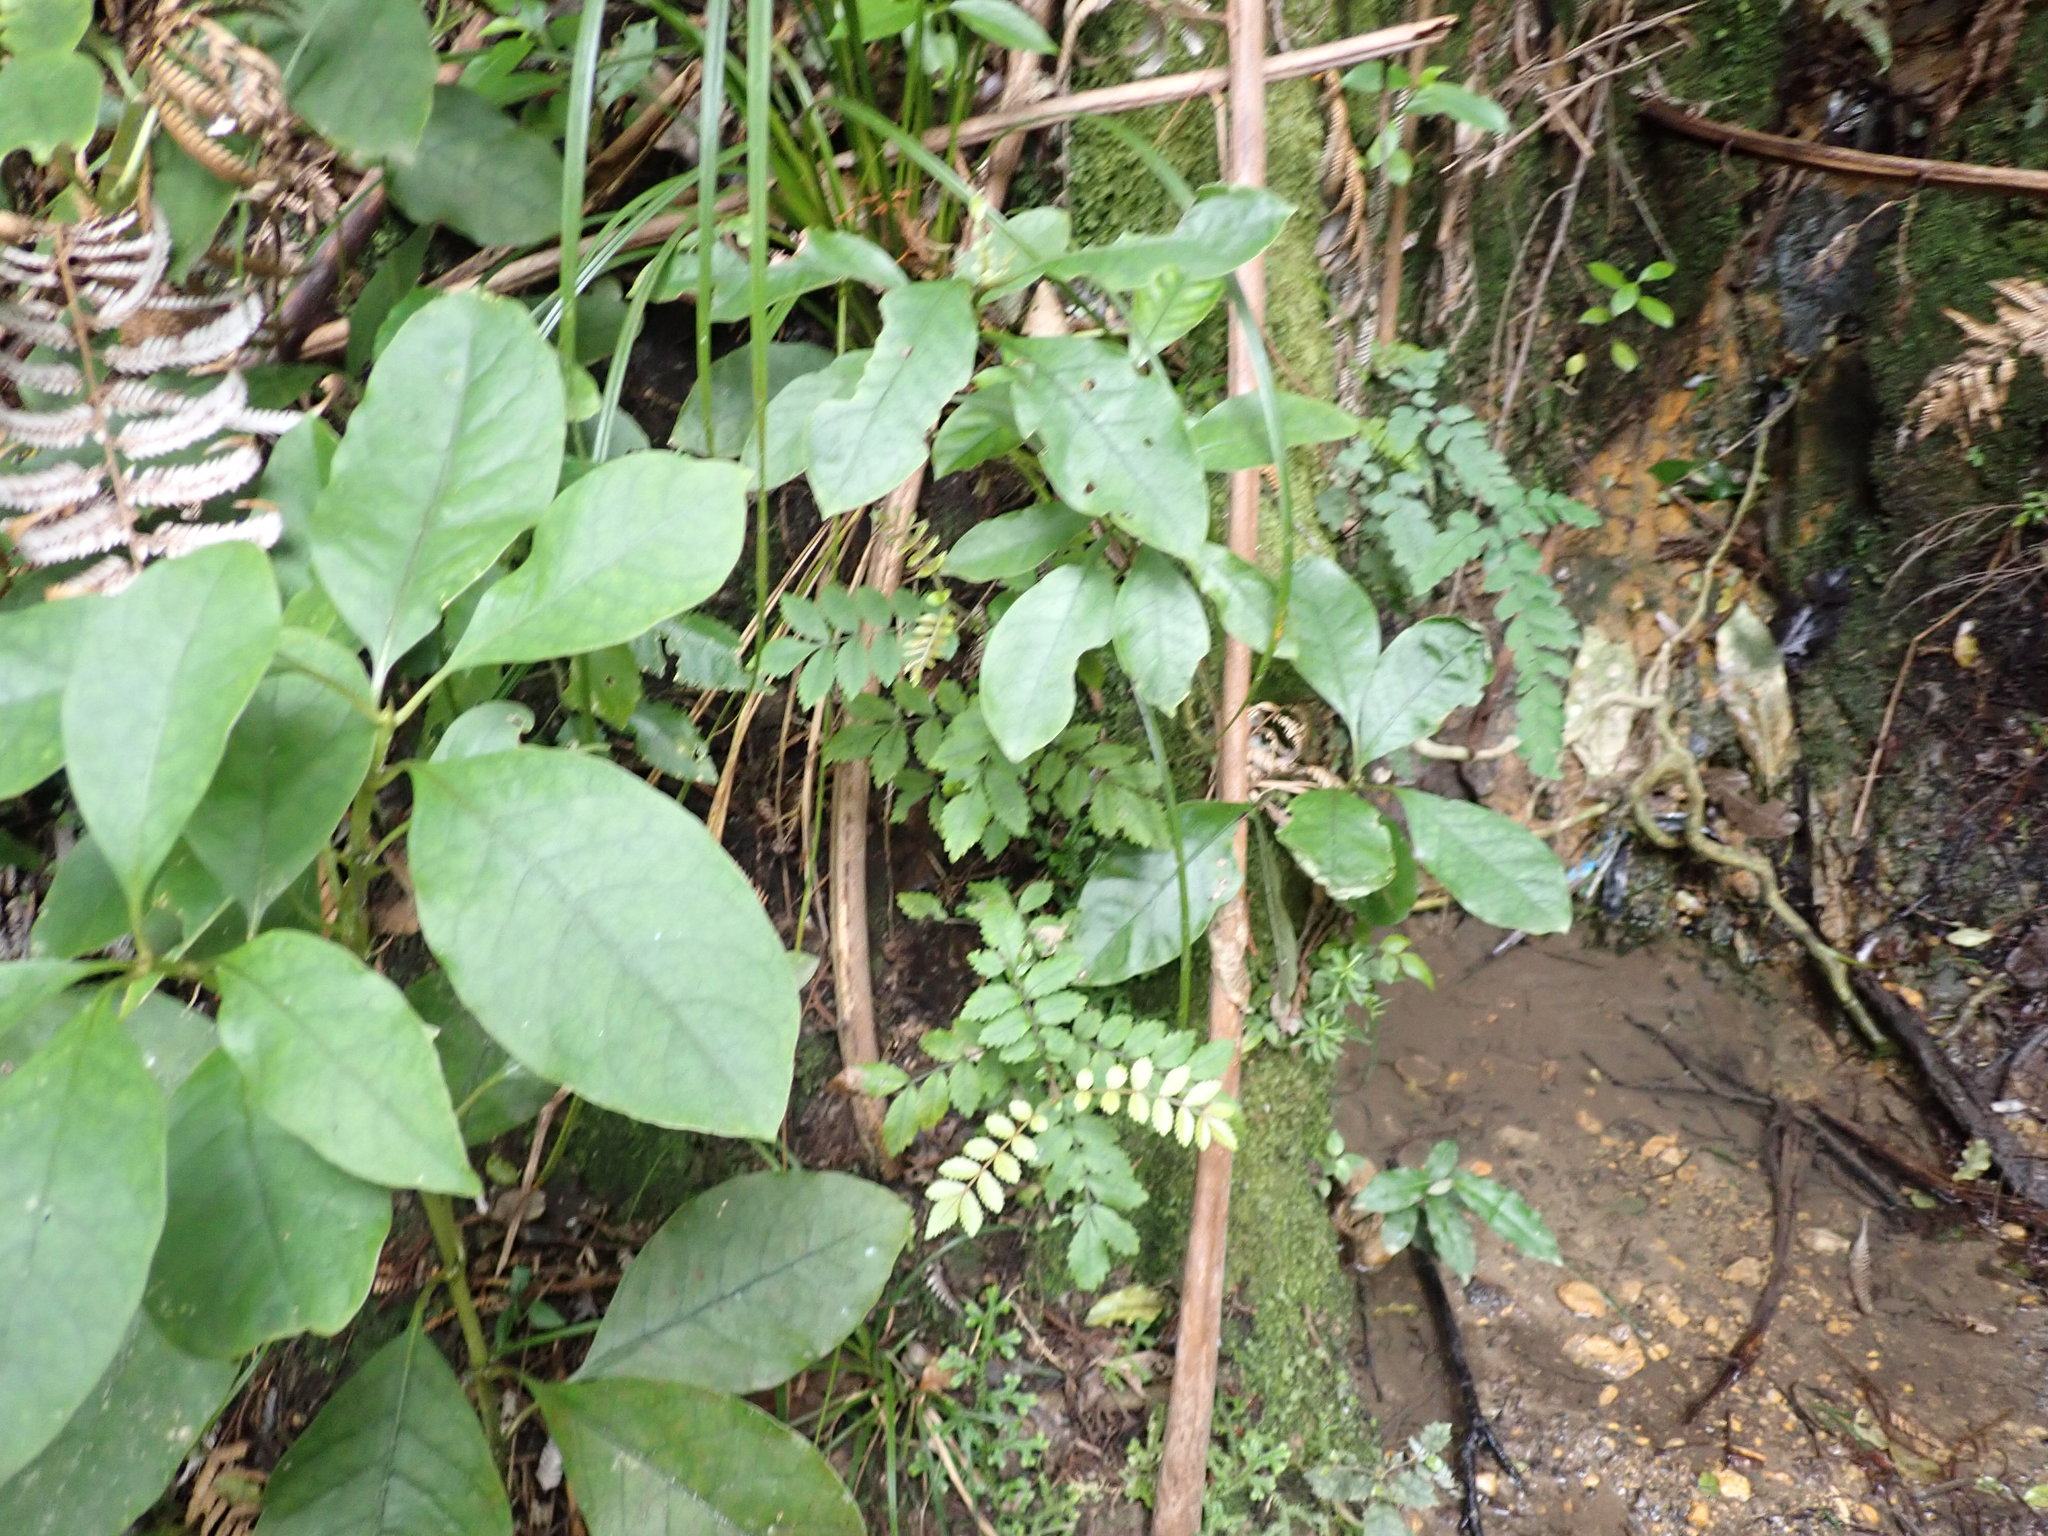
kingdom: Plantae
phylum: Tracheophyta
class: Magnoliopsida
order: Rosales
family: Elaeagnaceae
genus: Elaeagnus
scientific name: Elaeagnus reflexa
